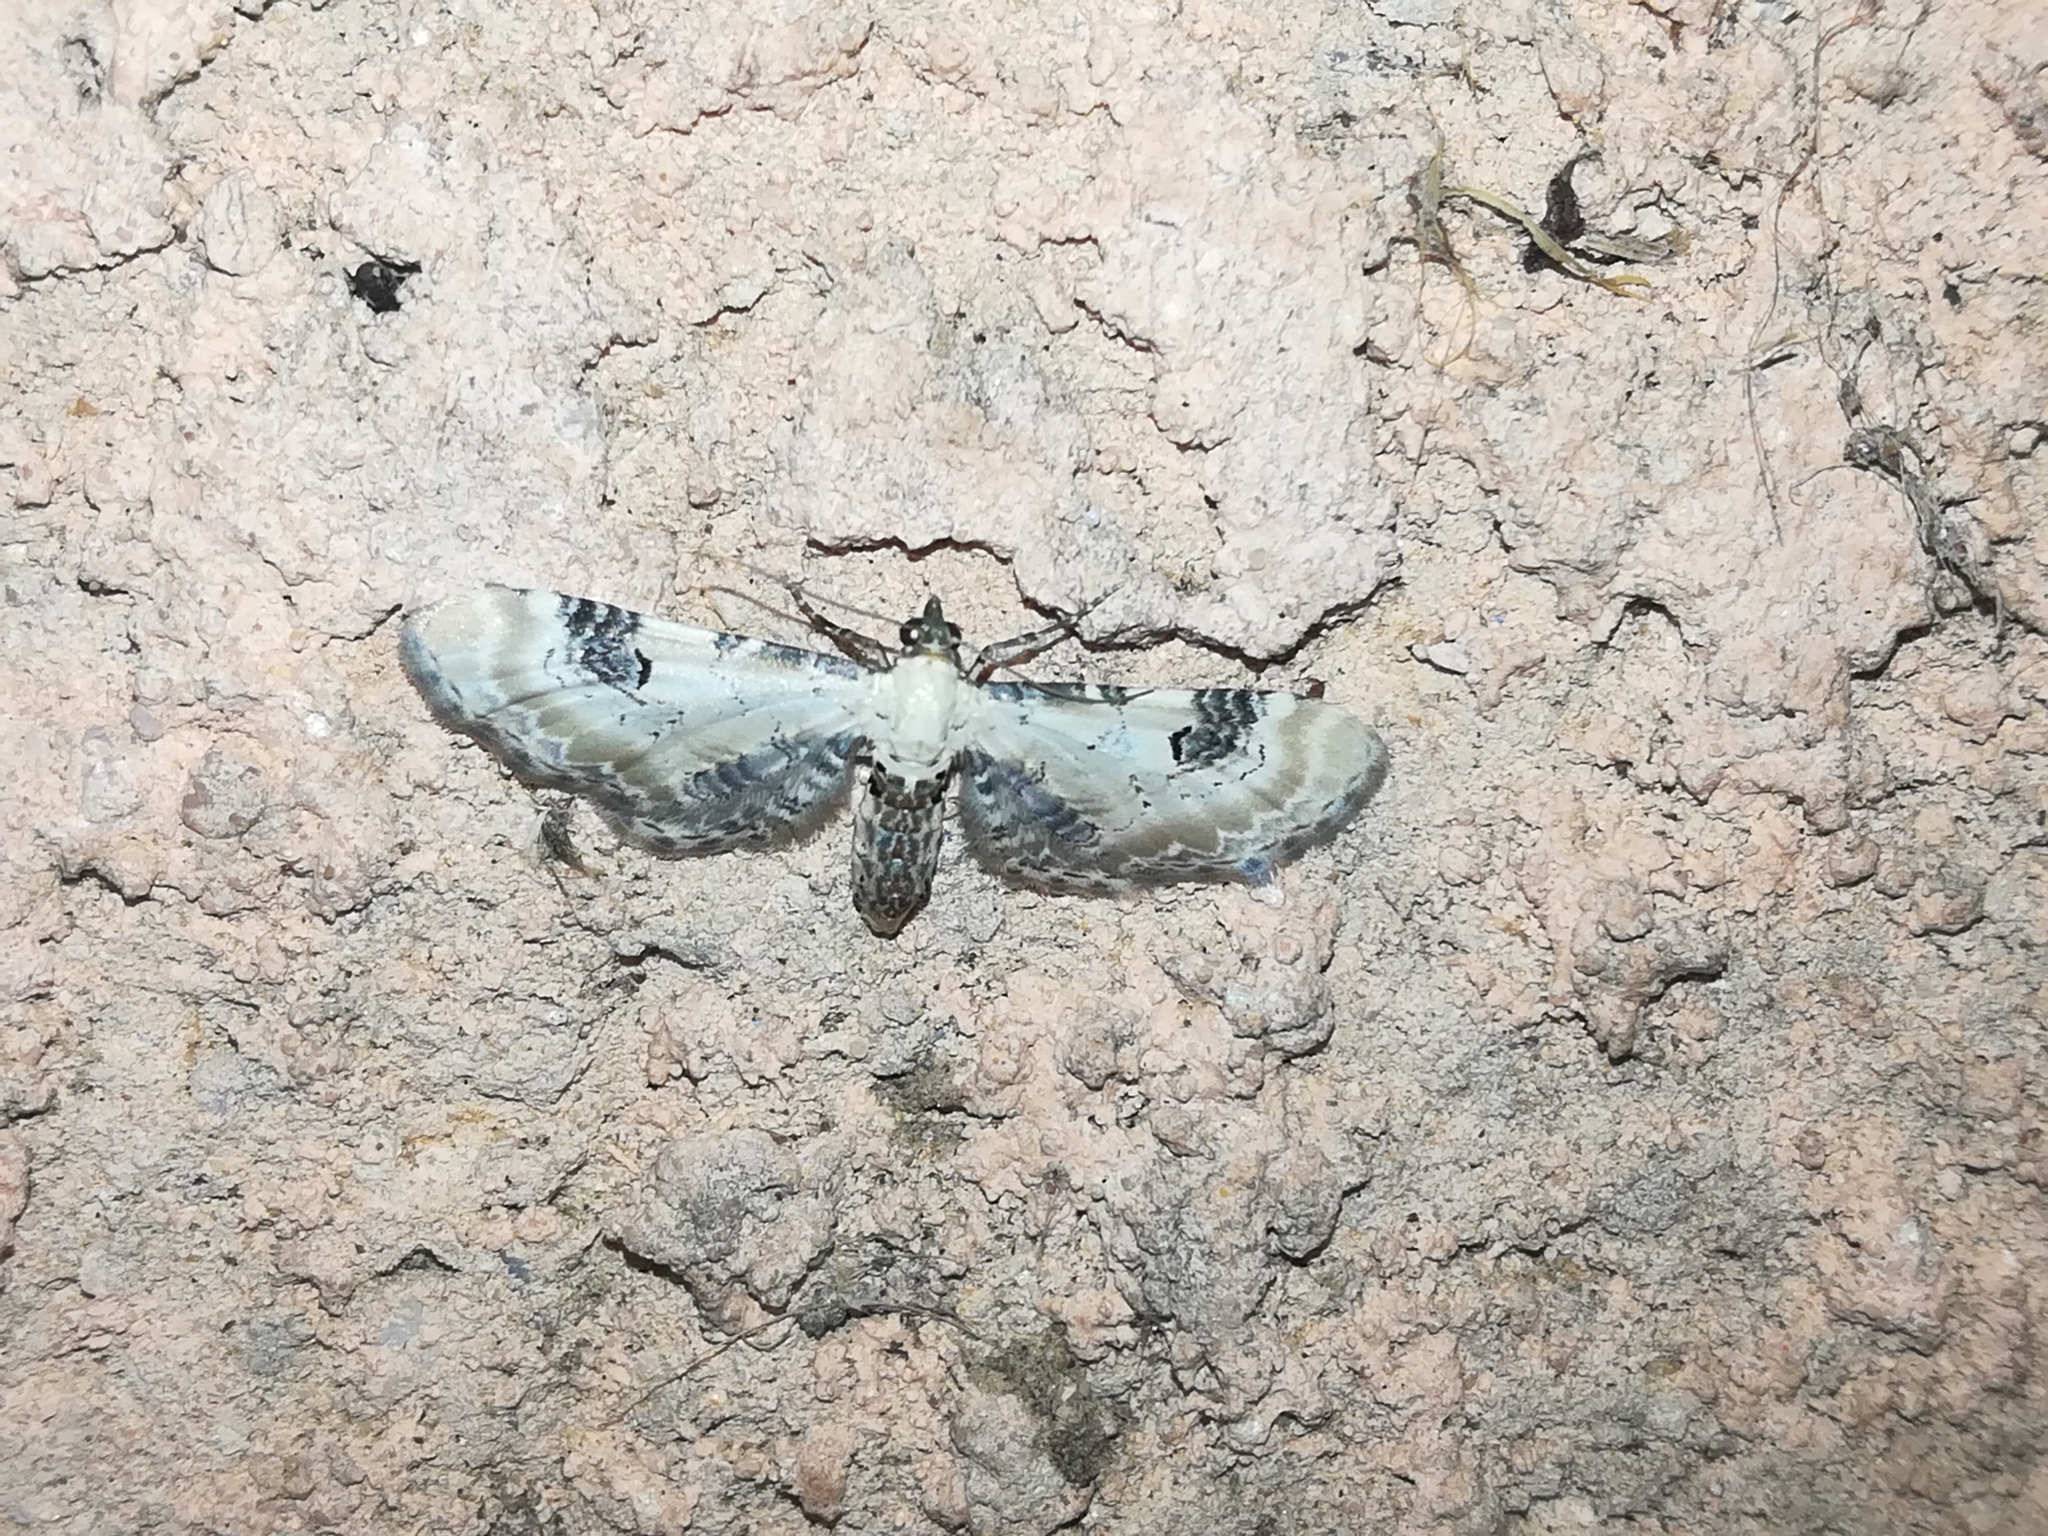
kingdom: Animalia
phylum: Arthropoda
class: Insecta
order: Lepidoptera
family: Geometridae
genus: Eupithecia
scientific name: Eupithecia centaureata
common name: Lime-speck pug
